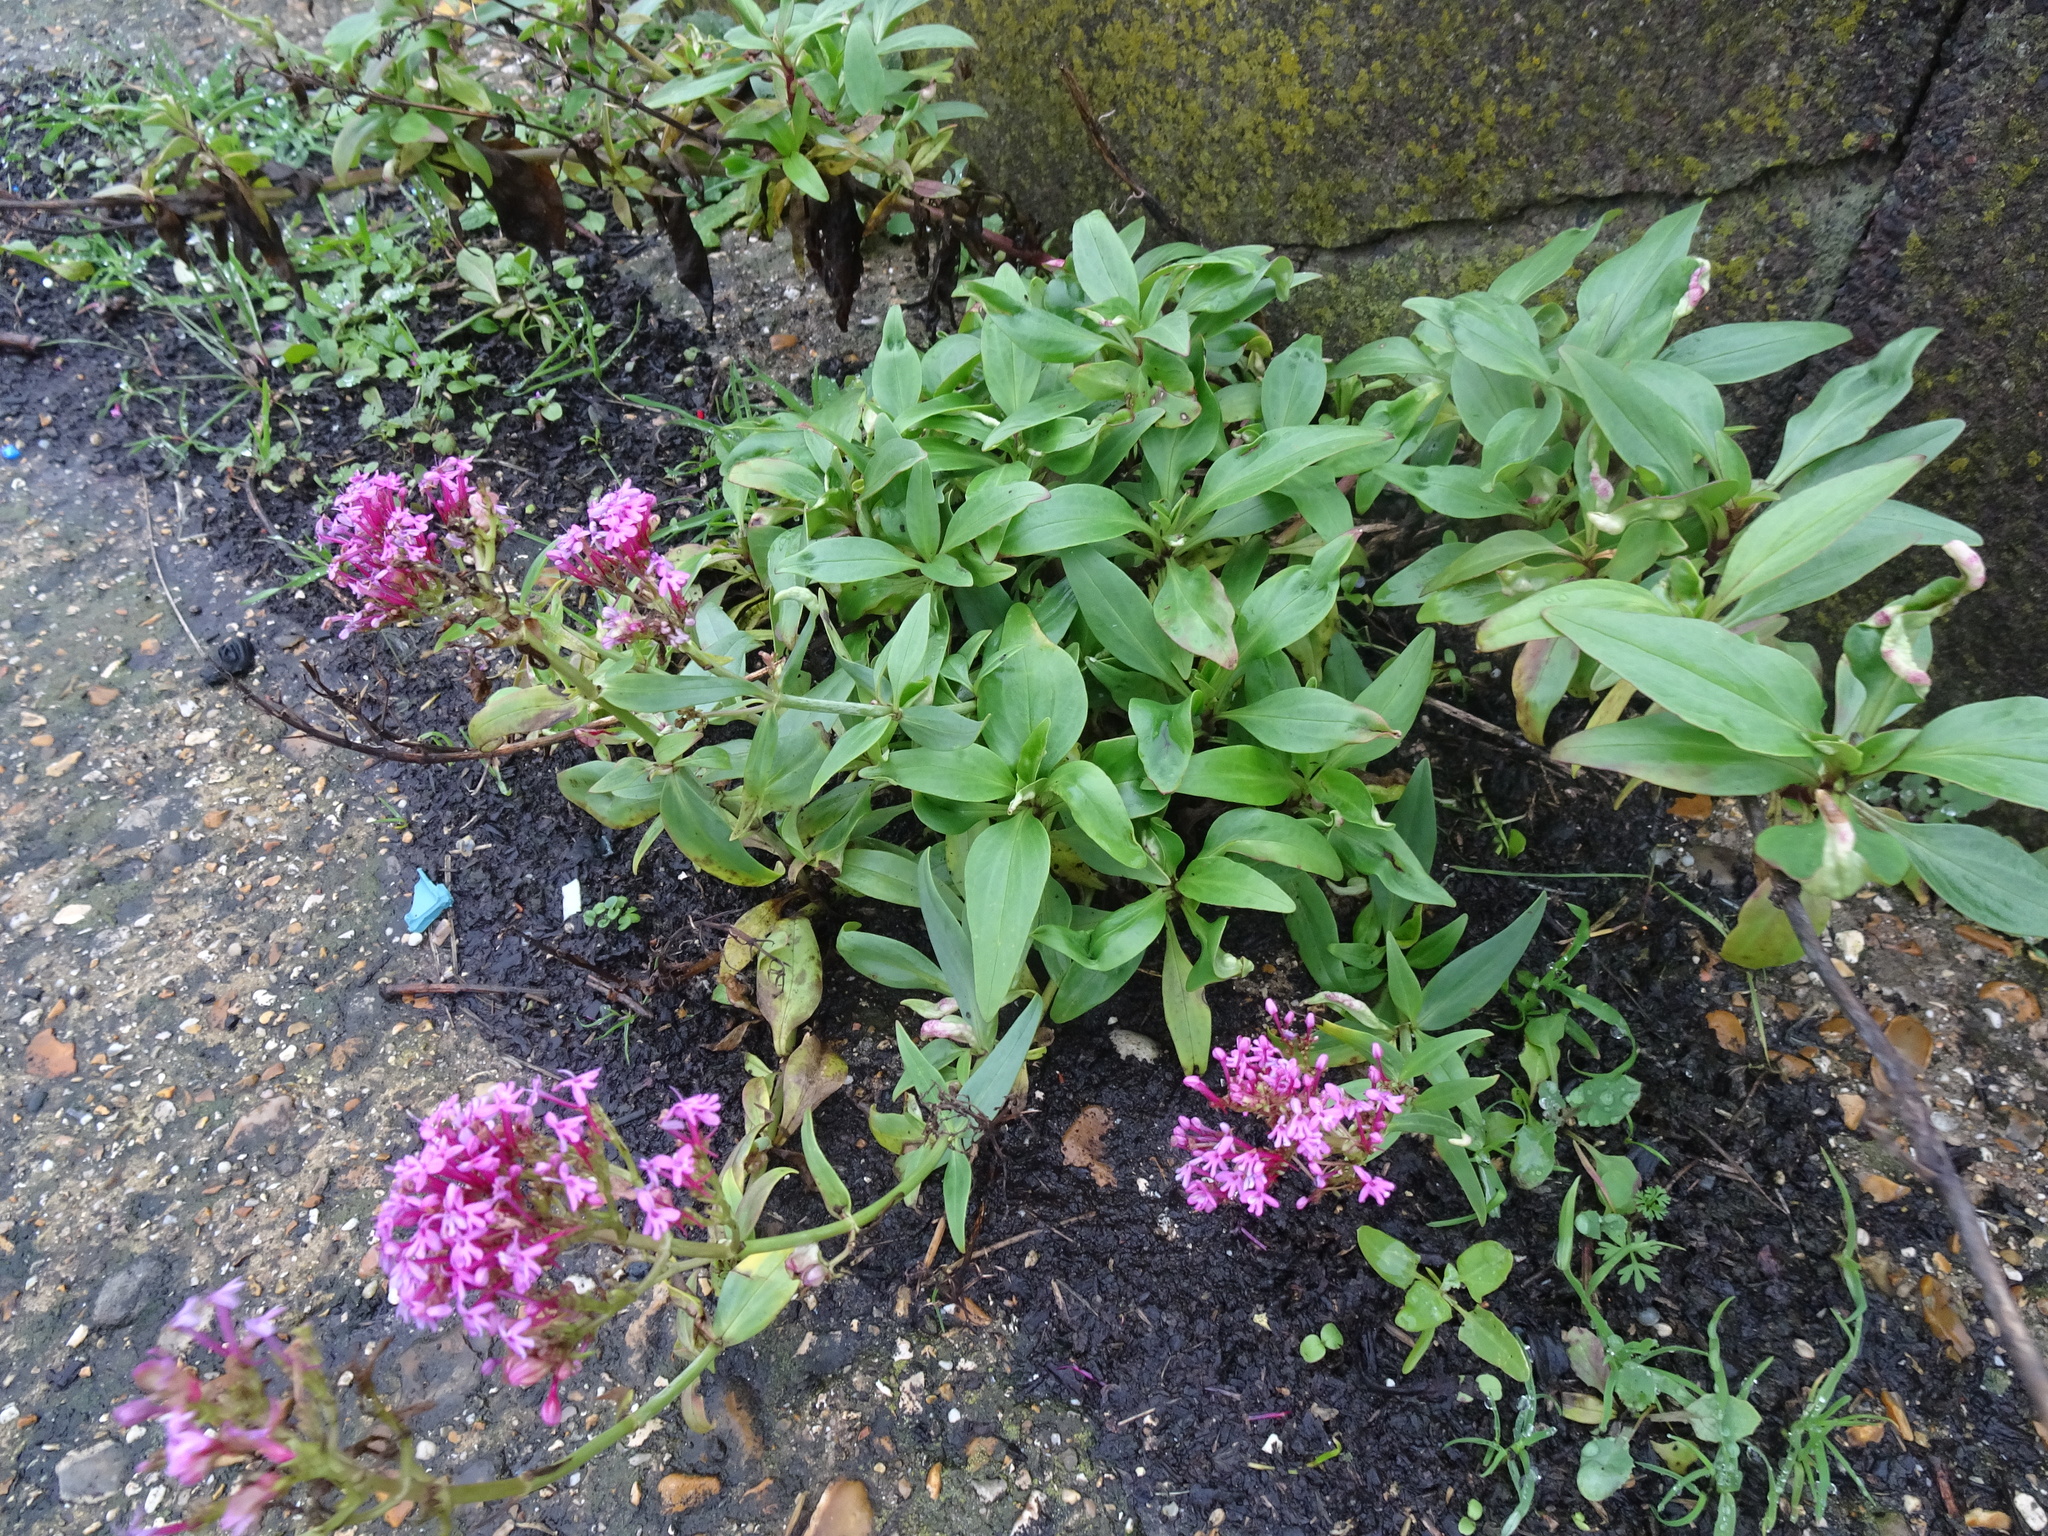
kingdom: Plantae
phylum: Tracheophyta
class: Magnoliopsida
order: Dipsacales
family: Caprifoliaceae
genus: Centranthus
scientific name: Centranthus ruber
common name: Red valerian
